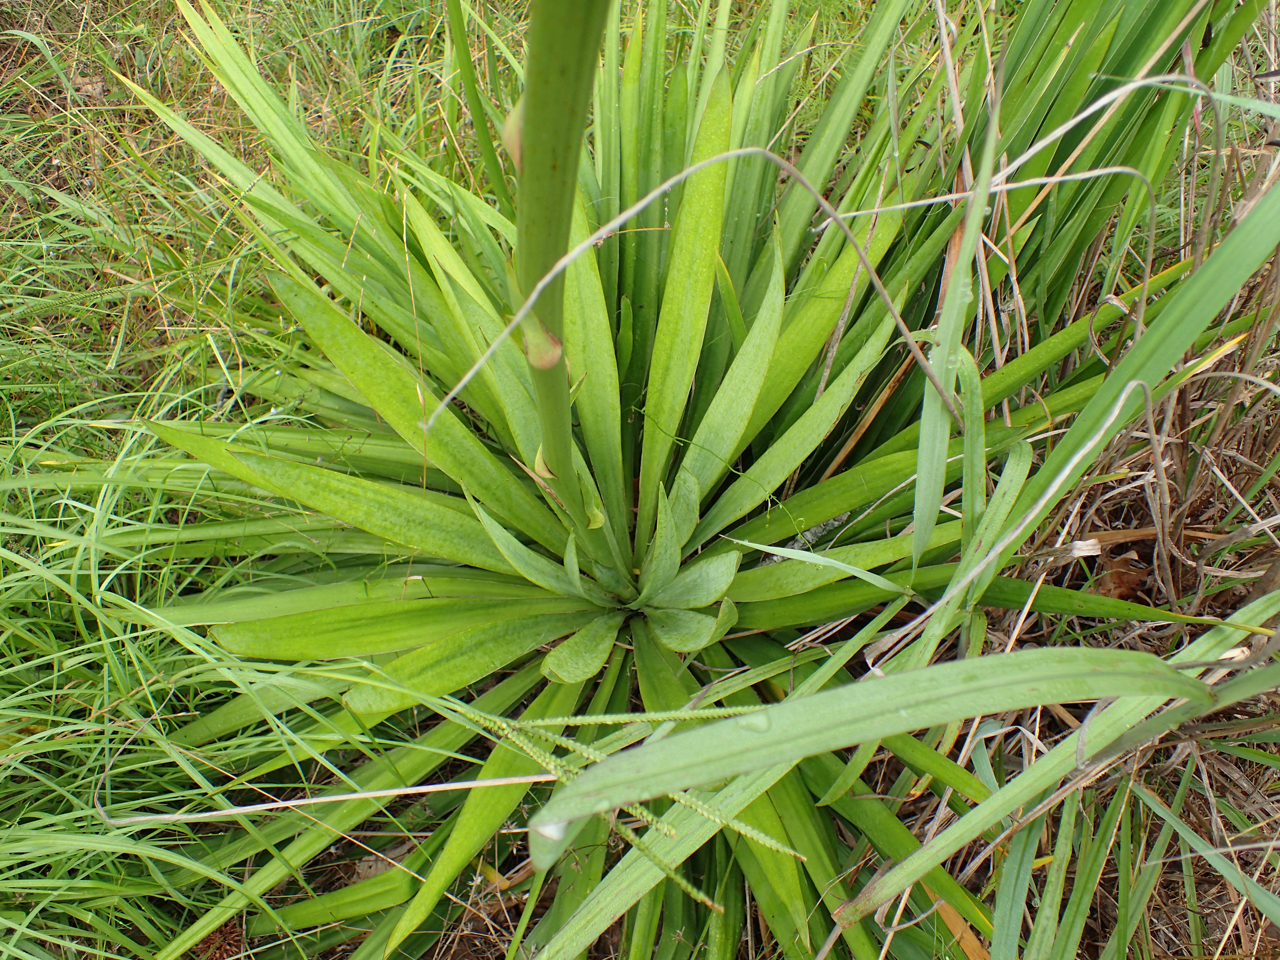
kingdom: Plantae
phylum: Tracheophyta
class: Liliopsida
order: Asparagales
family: Asparagaceae
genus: Yucca
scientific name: Yucca flaccida
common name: Adam's-needle
